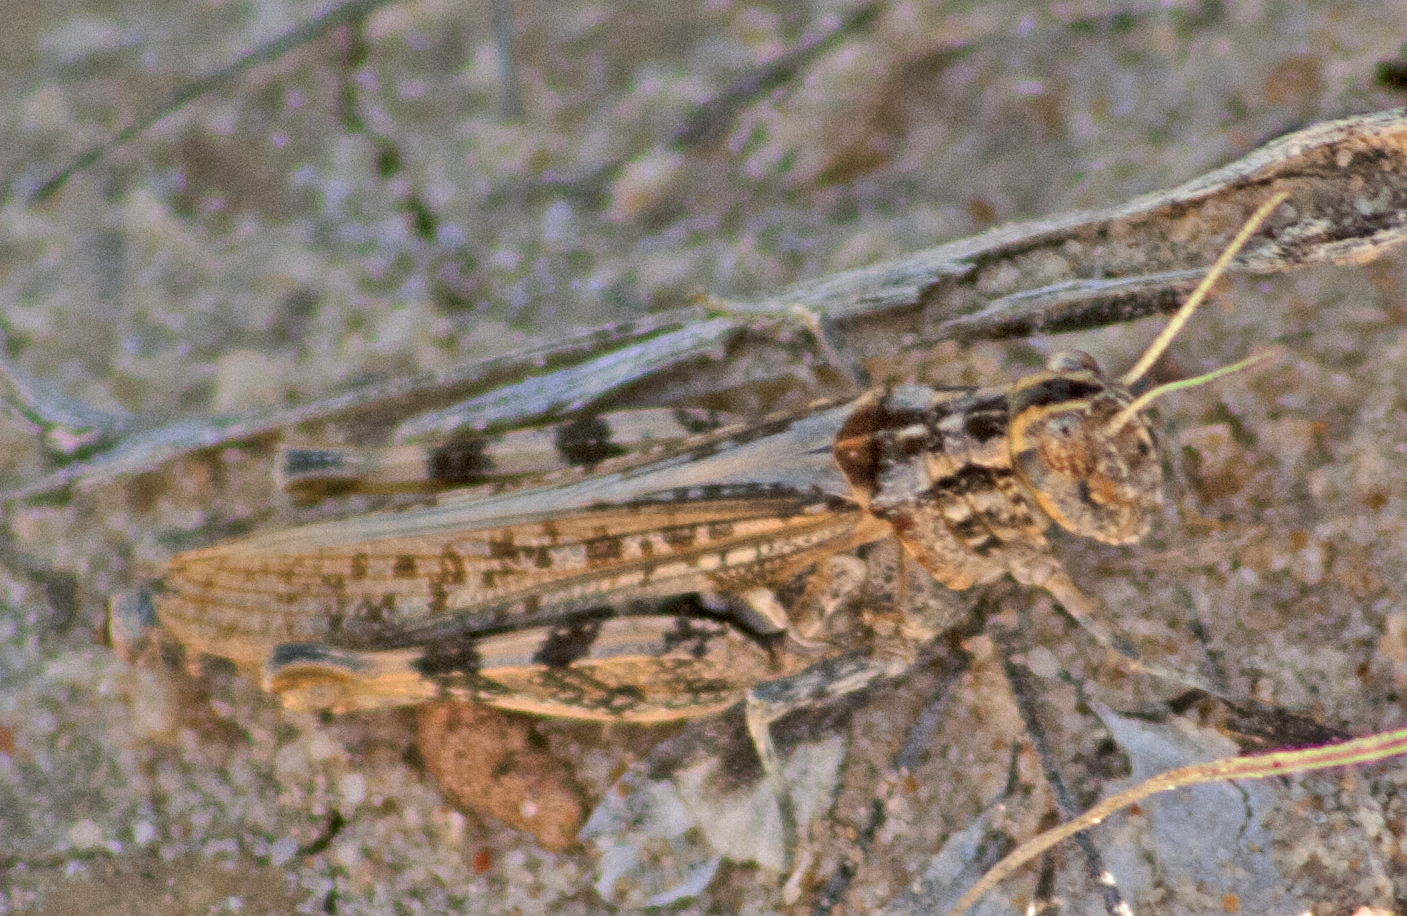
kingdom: Animalia
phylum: Arthropoda
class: Insecta
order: Orthoptera
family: Acrididae
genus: Collitera
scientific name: Collitera variegata
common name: Speckled grasshopper
